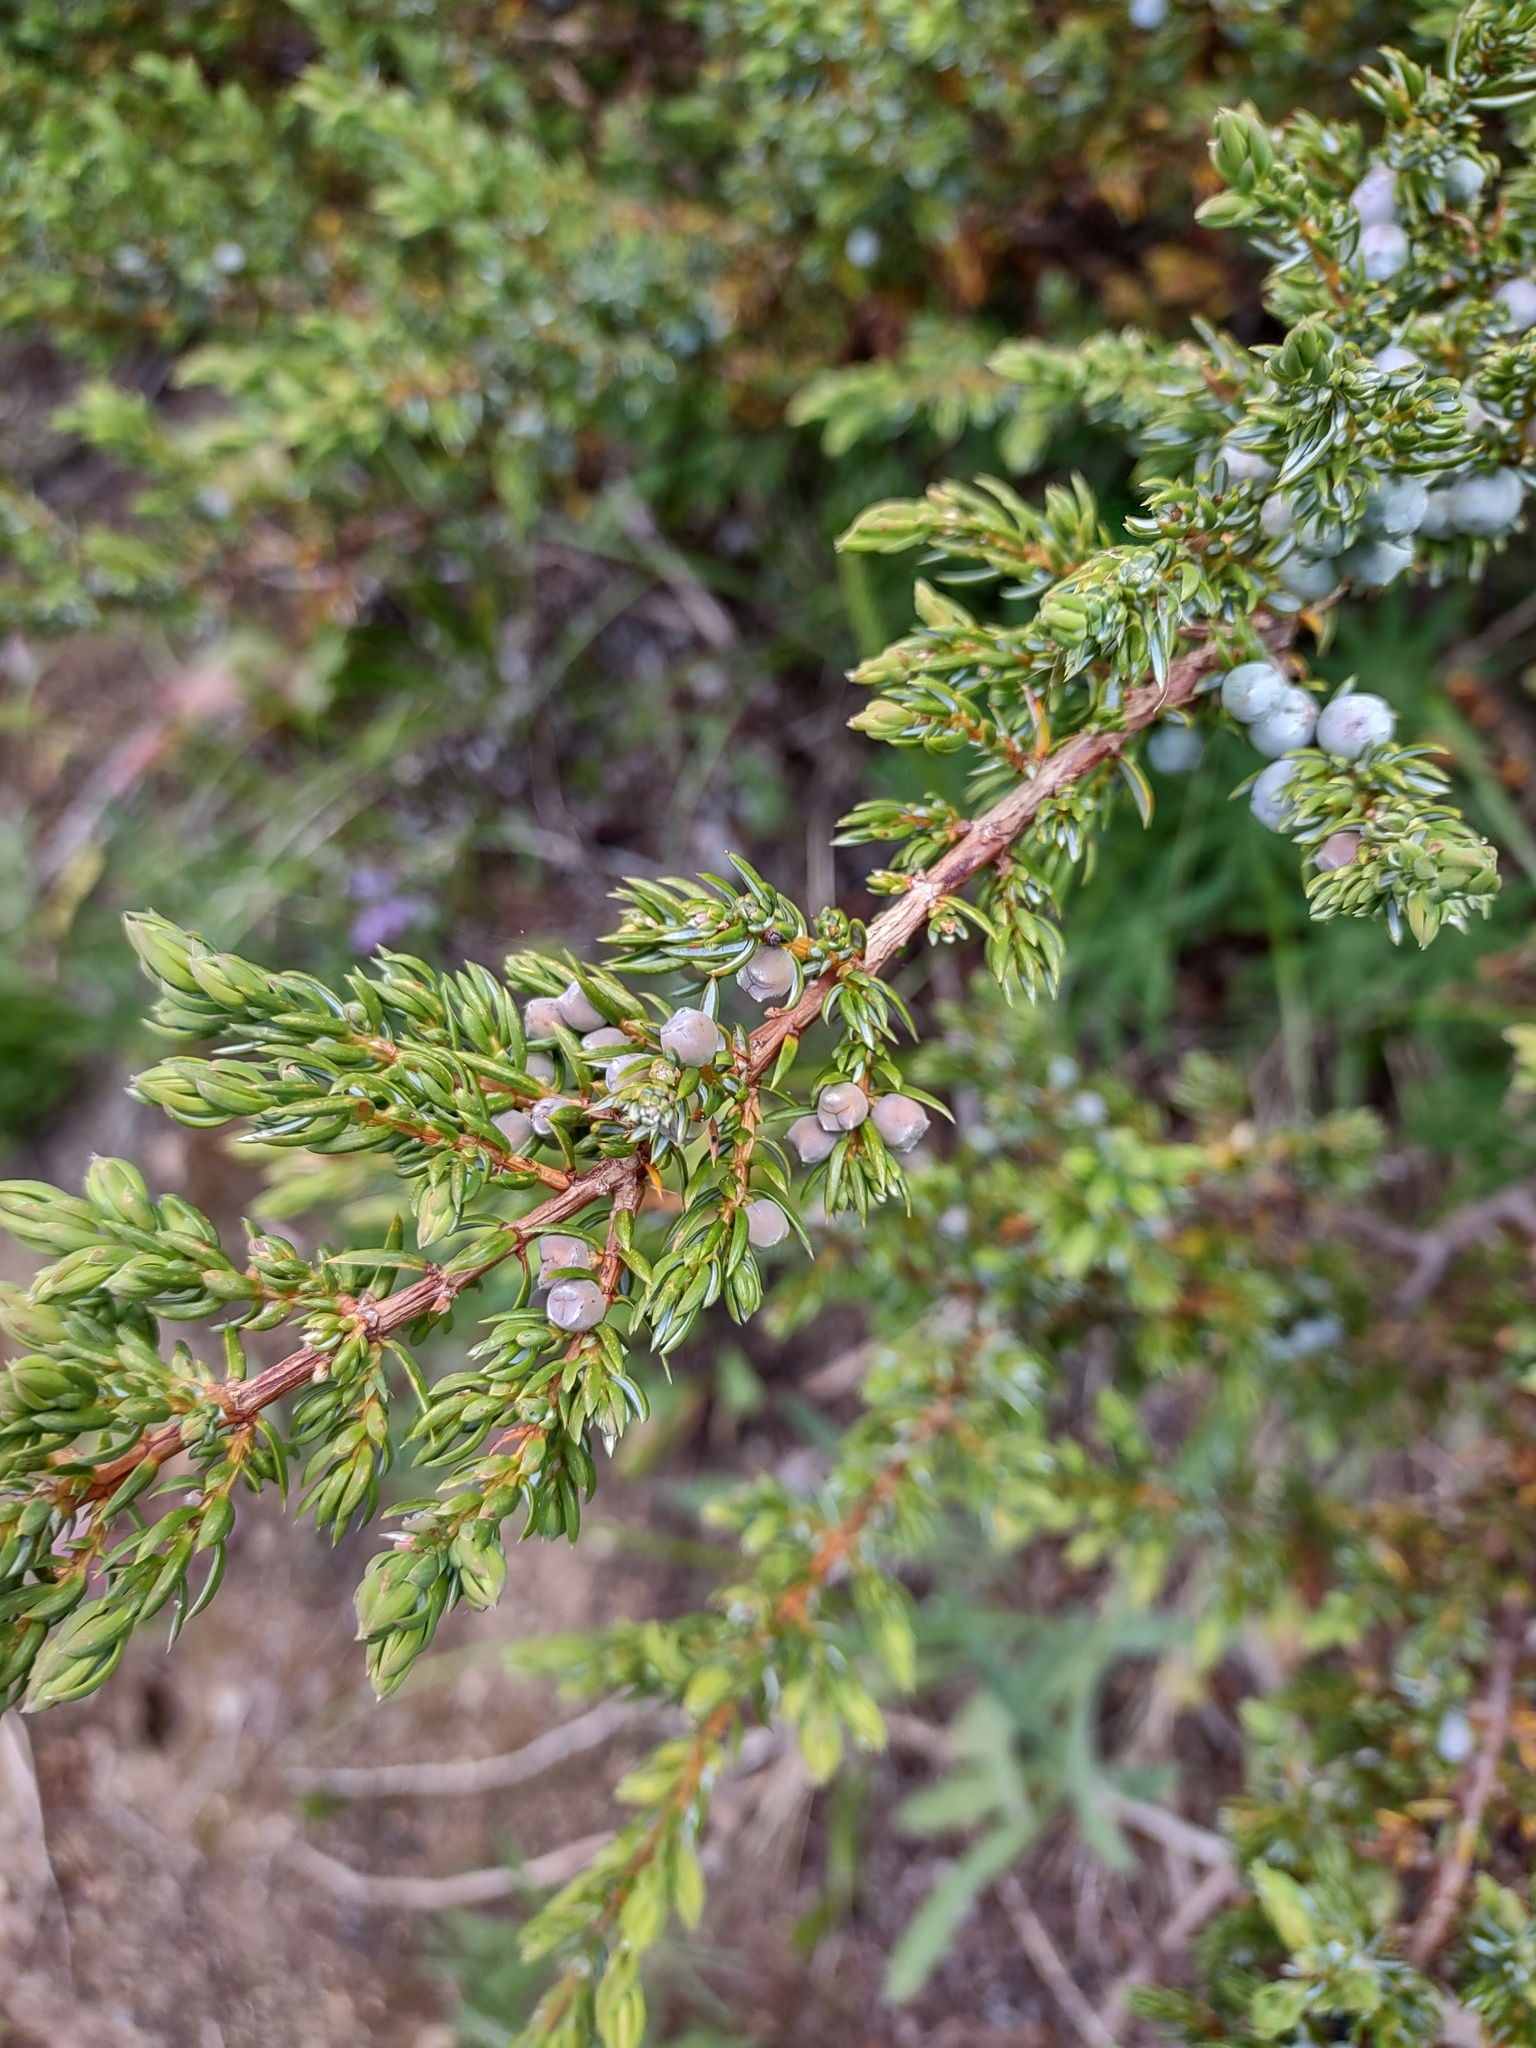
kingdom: Plantae
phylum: Tracheophyta
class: Pinopsida
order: Pinales
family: Cupressaceae
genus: Juniperus
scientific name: Juniperus communis
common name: Common juniper
